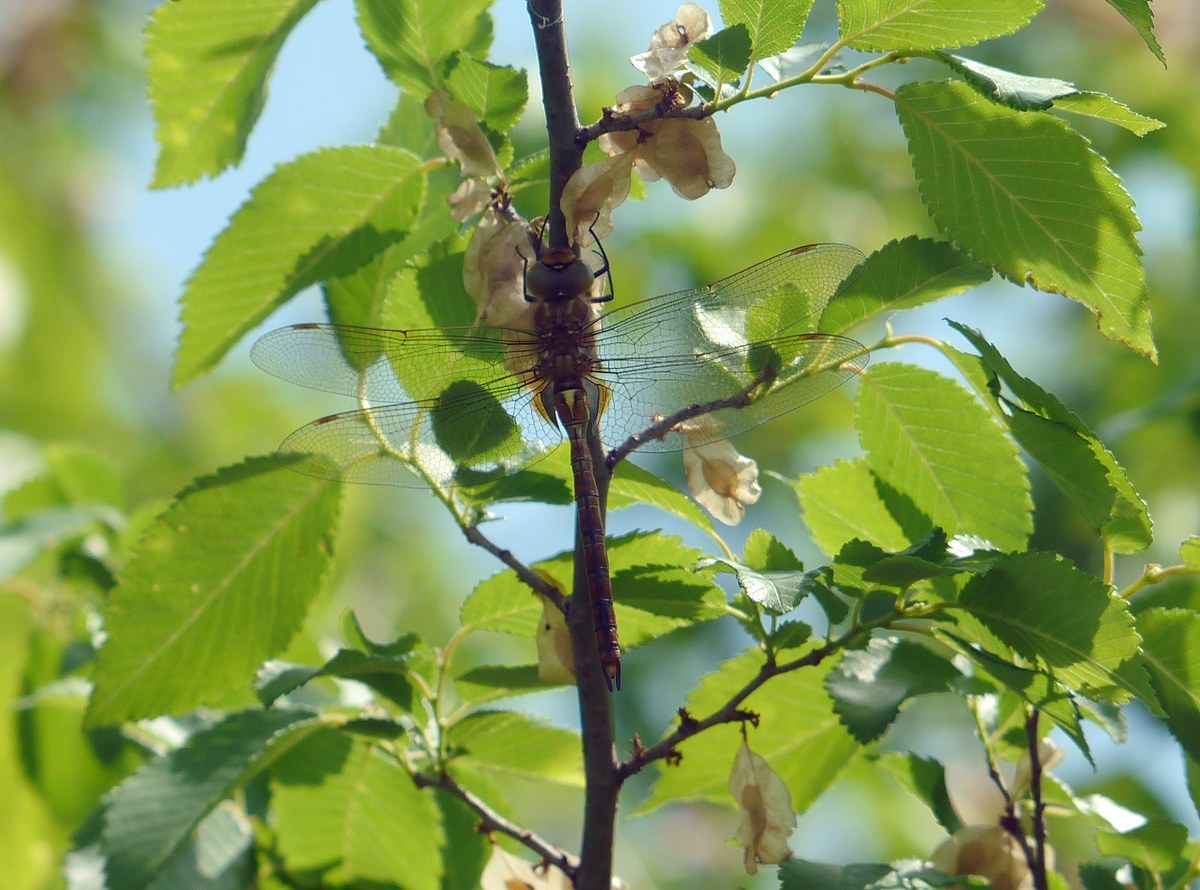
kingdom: Animalia
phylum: Arthropoda
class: Insecta
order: Odonata
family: Aeshnidae
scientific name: Aeshnidae
